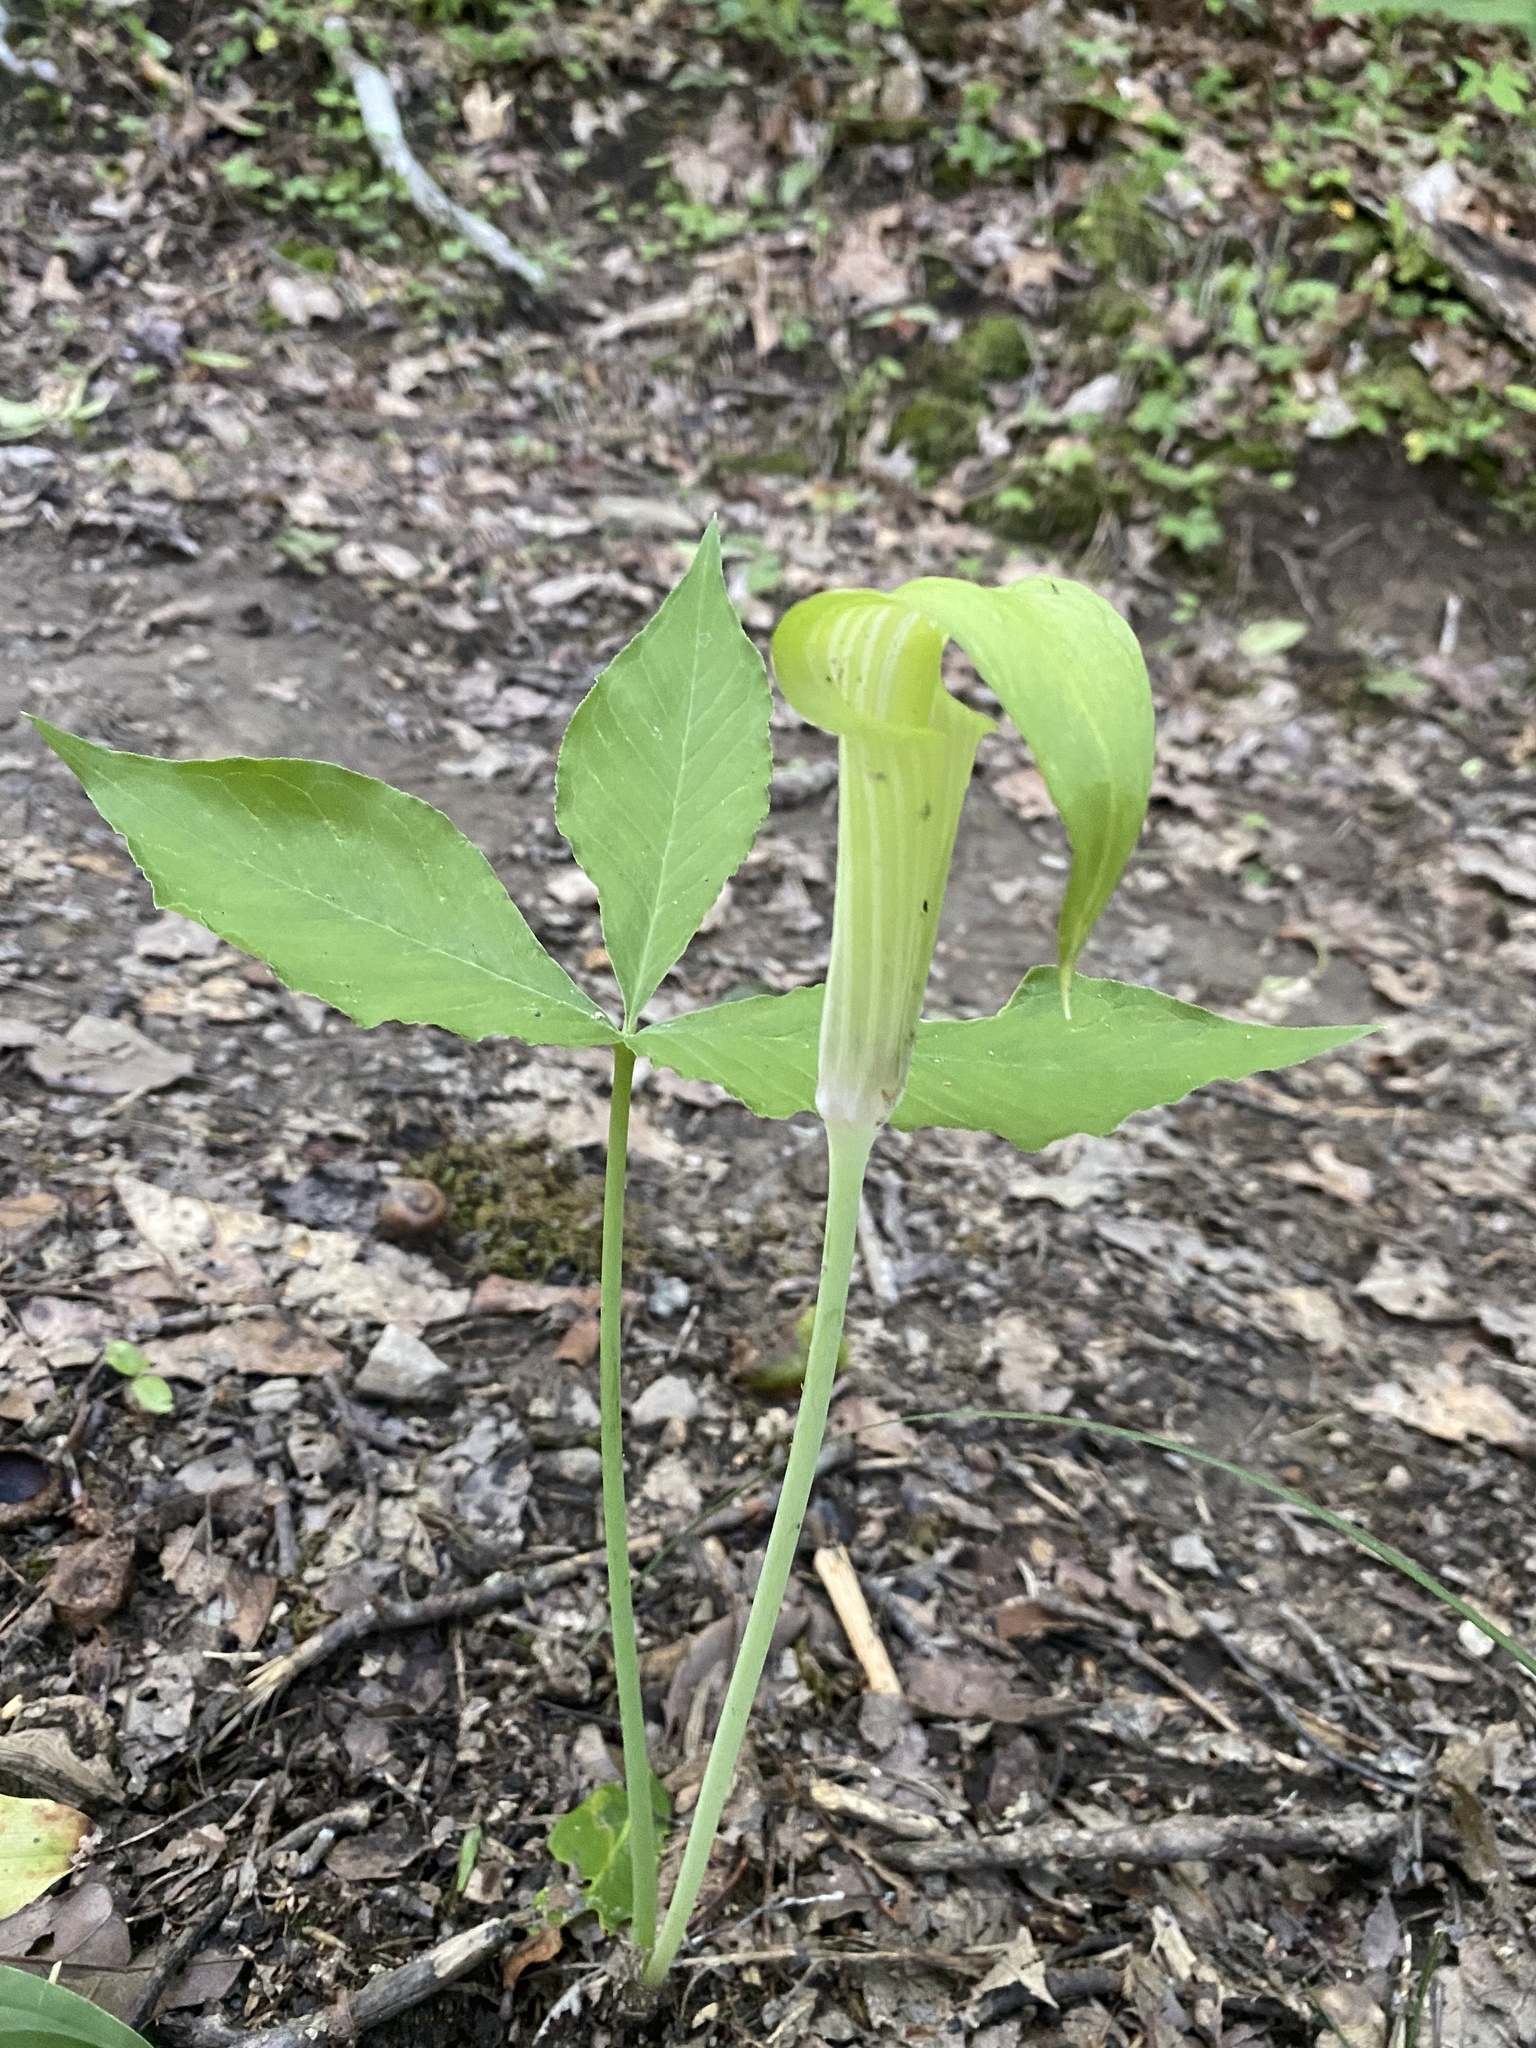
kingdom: Plantae
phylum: Tracheophyta
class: Liliopsida
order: Alismatales
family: Araceae
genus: Arisaema
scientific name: Arisaema triphyllum
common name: Jack-in-the-pulpit
